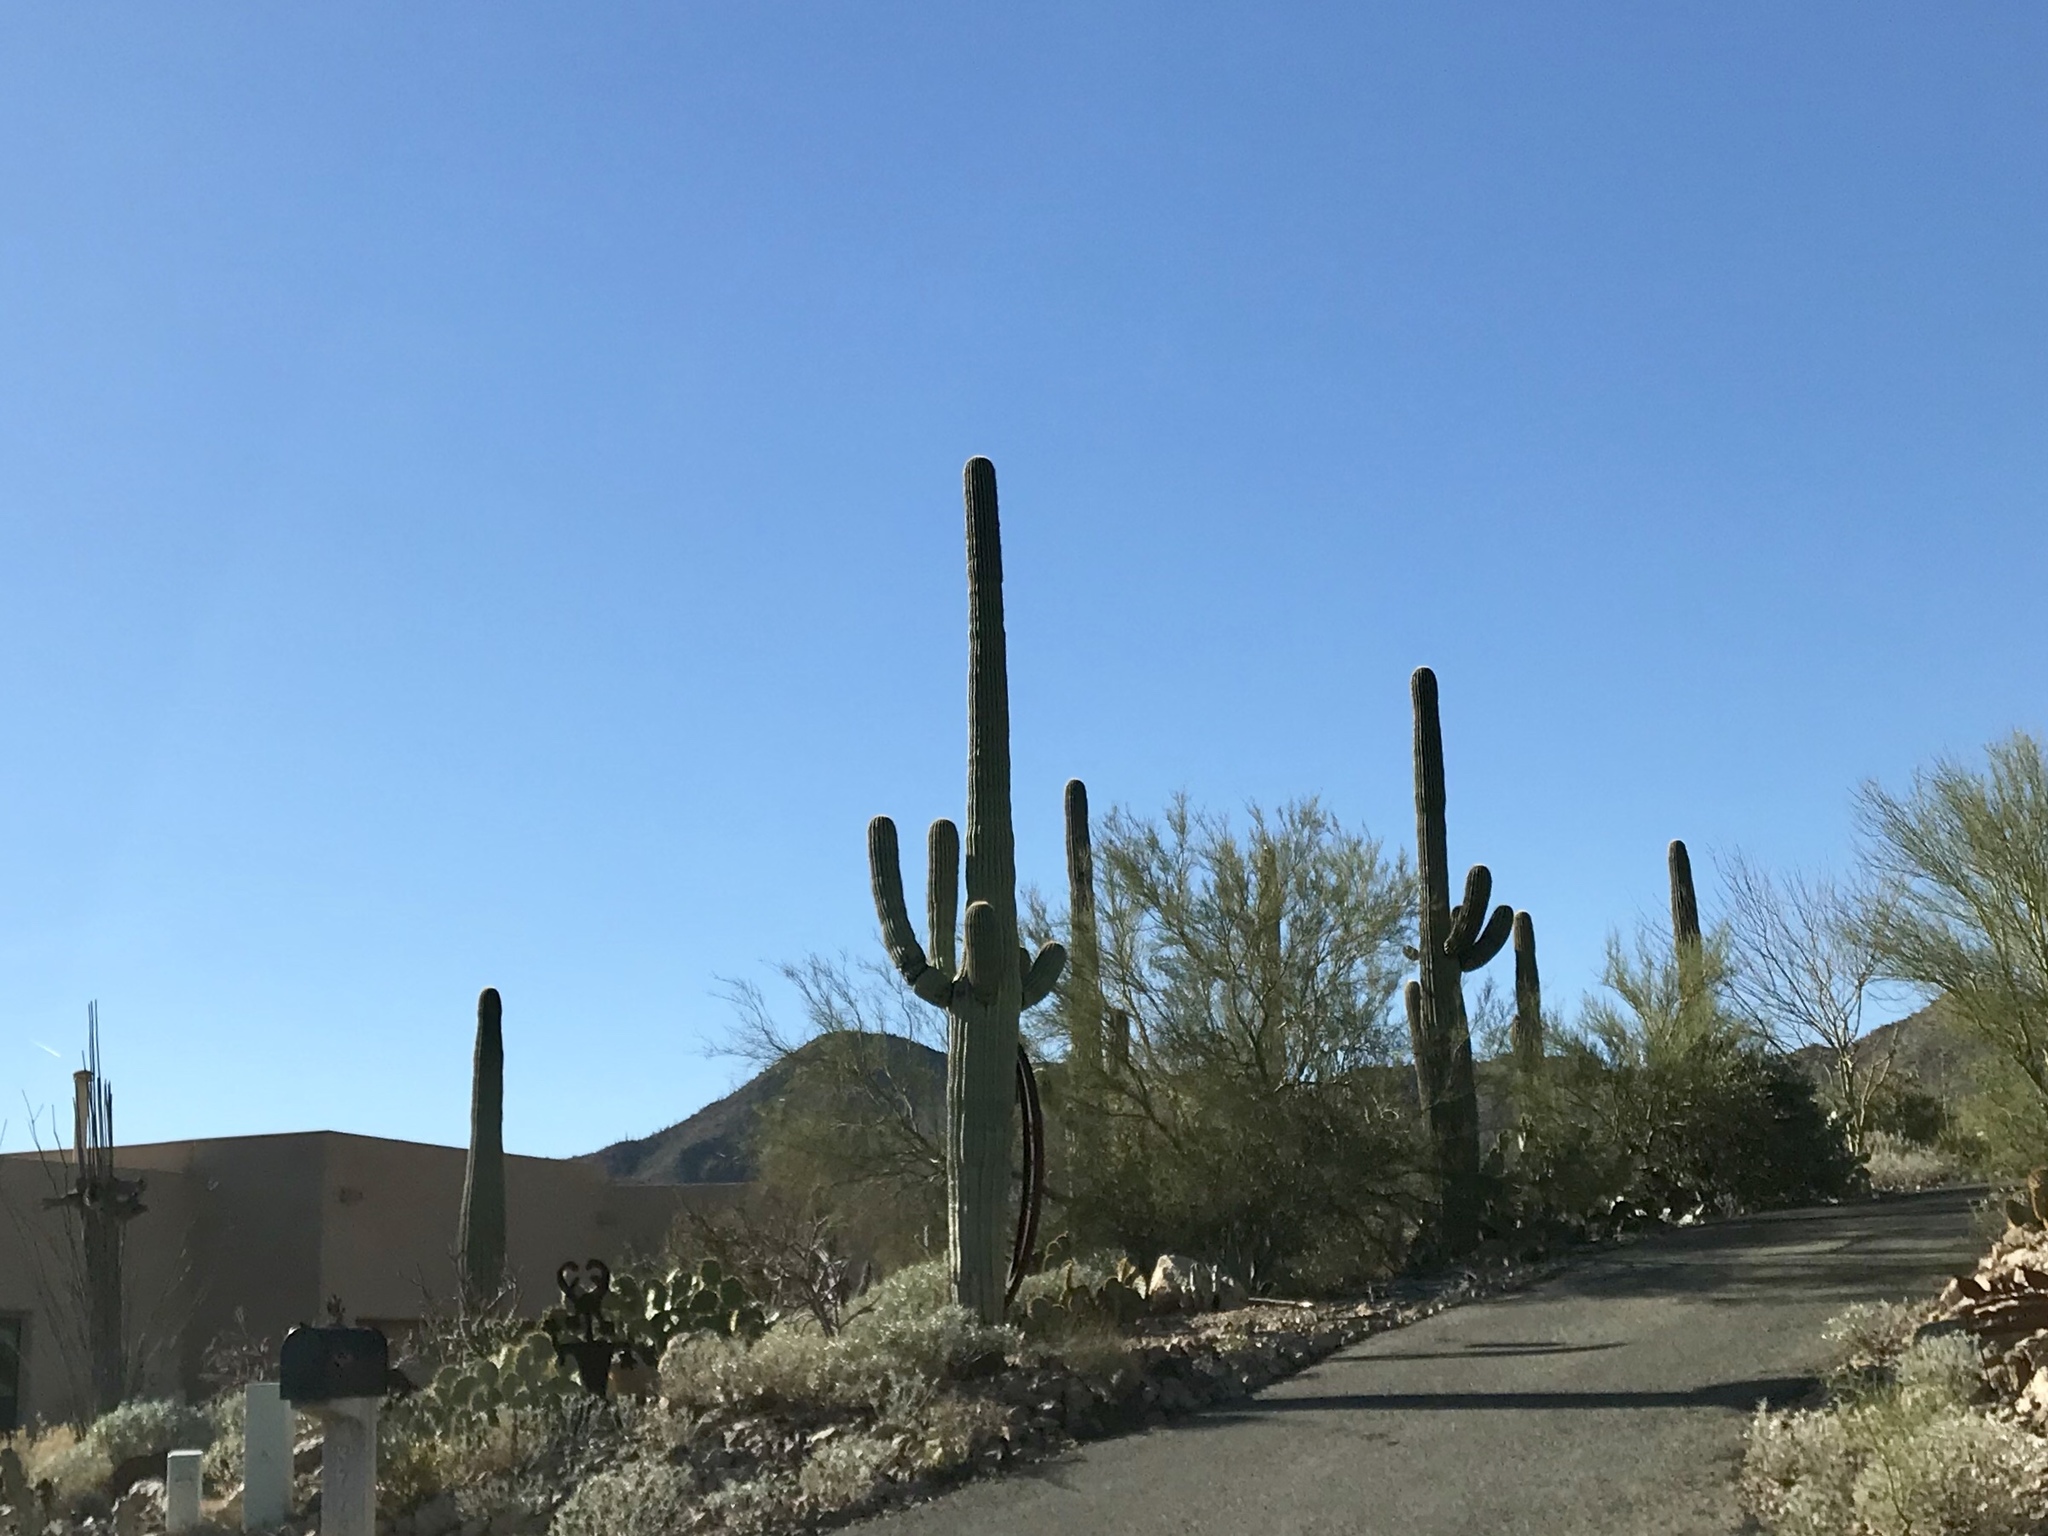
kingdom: Plantae
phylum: Tracheophyta
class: Magnoliopsida
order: Caryophyllales
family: Cactaceae
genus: Carnegiea
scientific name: Carnegiea gigantea
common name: Saguaro
